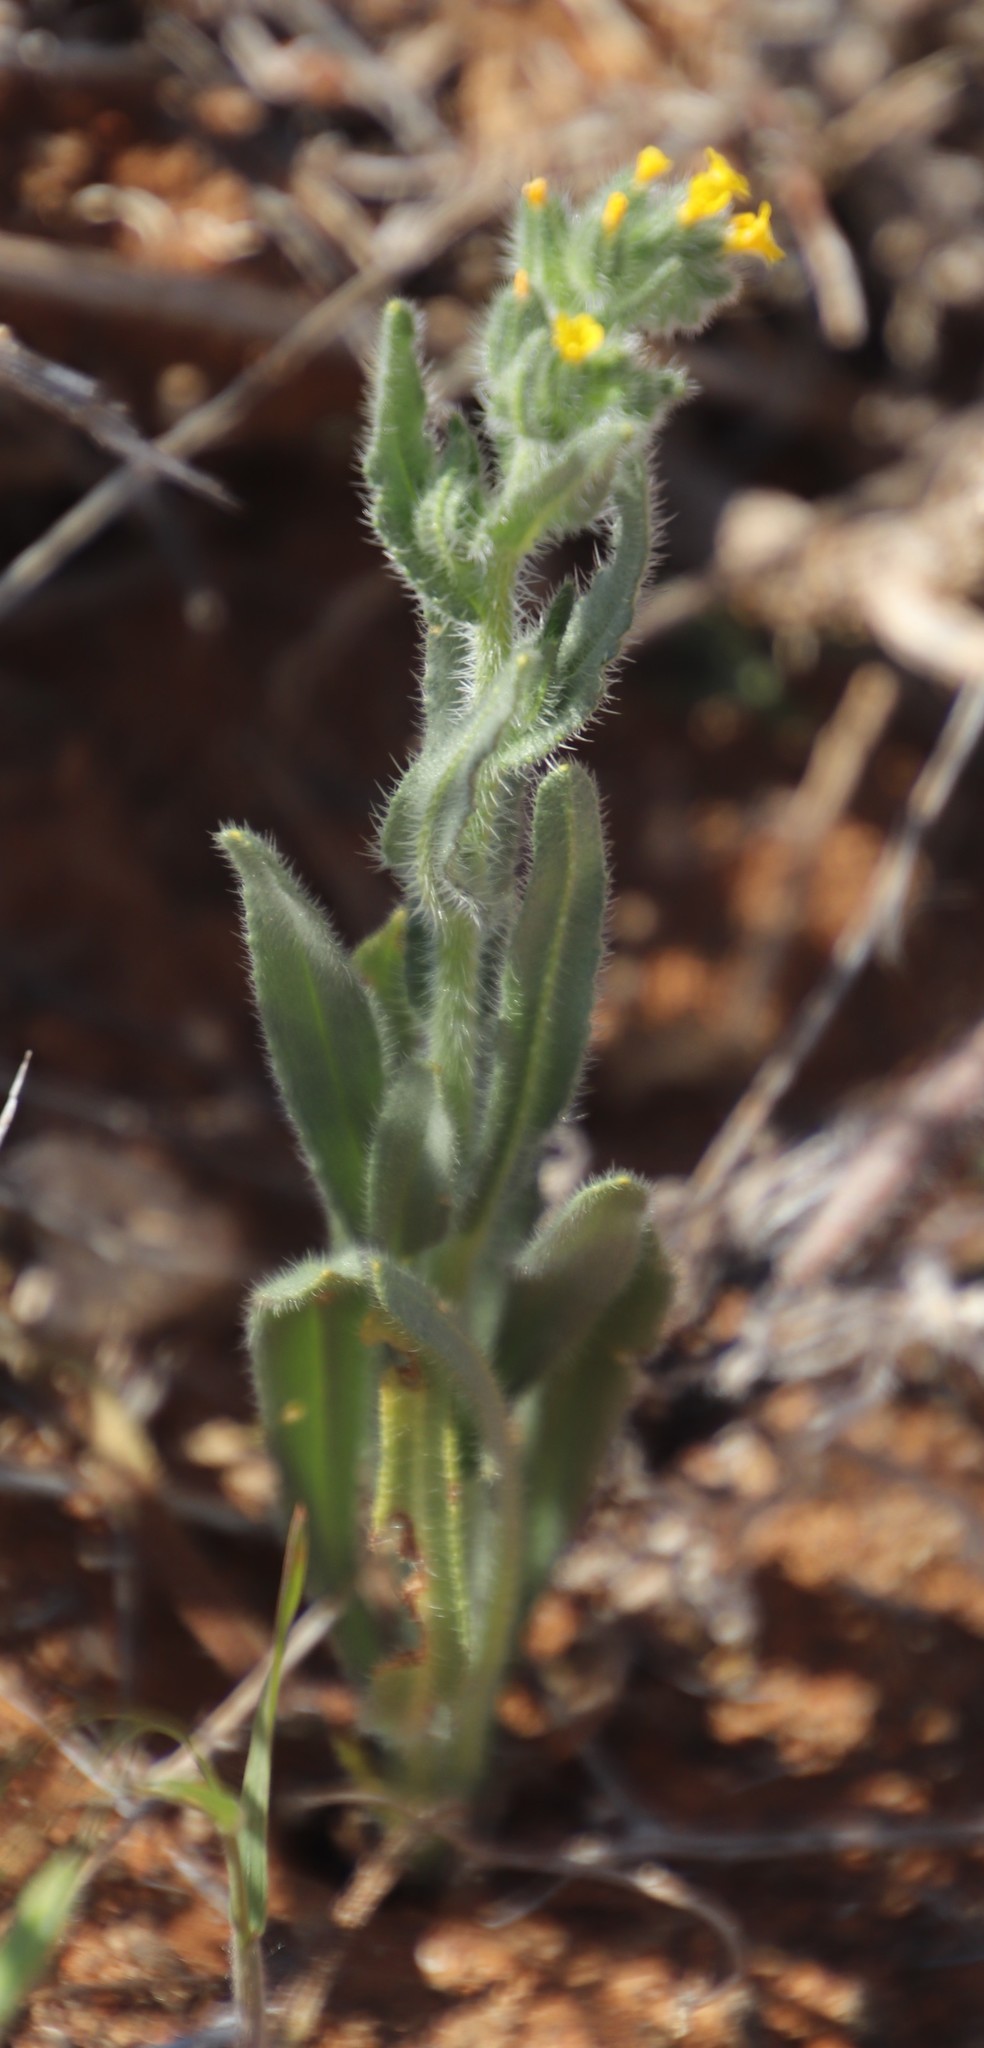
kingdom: Plantae
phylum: Tracheophyta
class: Magnoliopsida
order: Boraginales
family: Boraginaceae
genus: Amsinckia
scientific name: Amsinckia menziesii
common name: Menzies' fiddleneck
